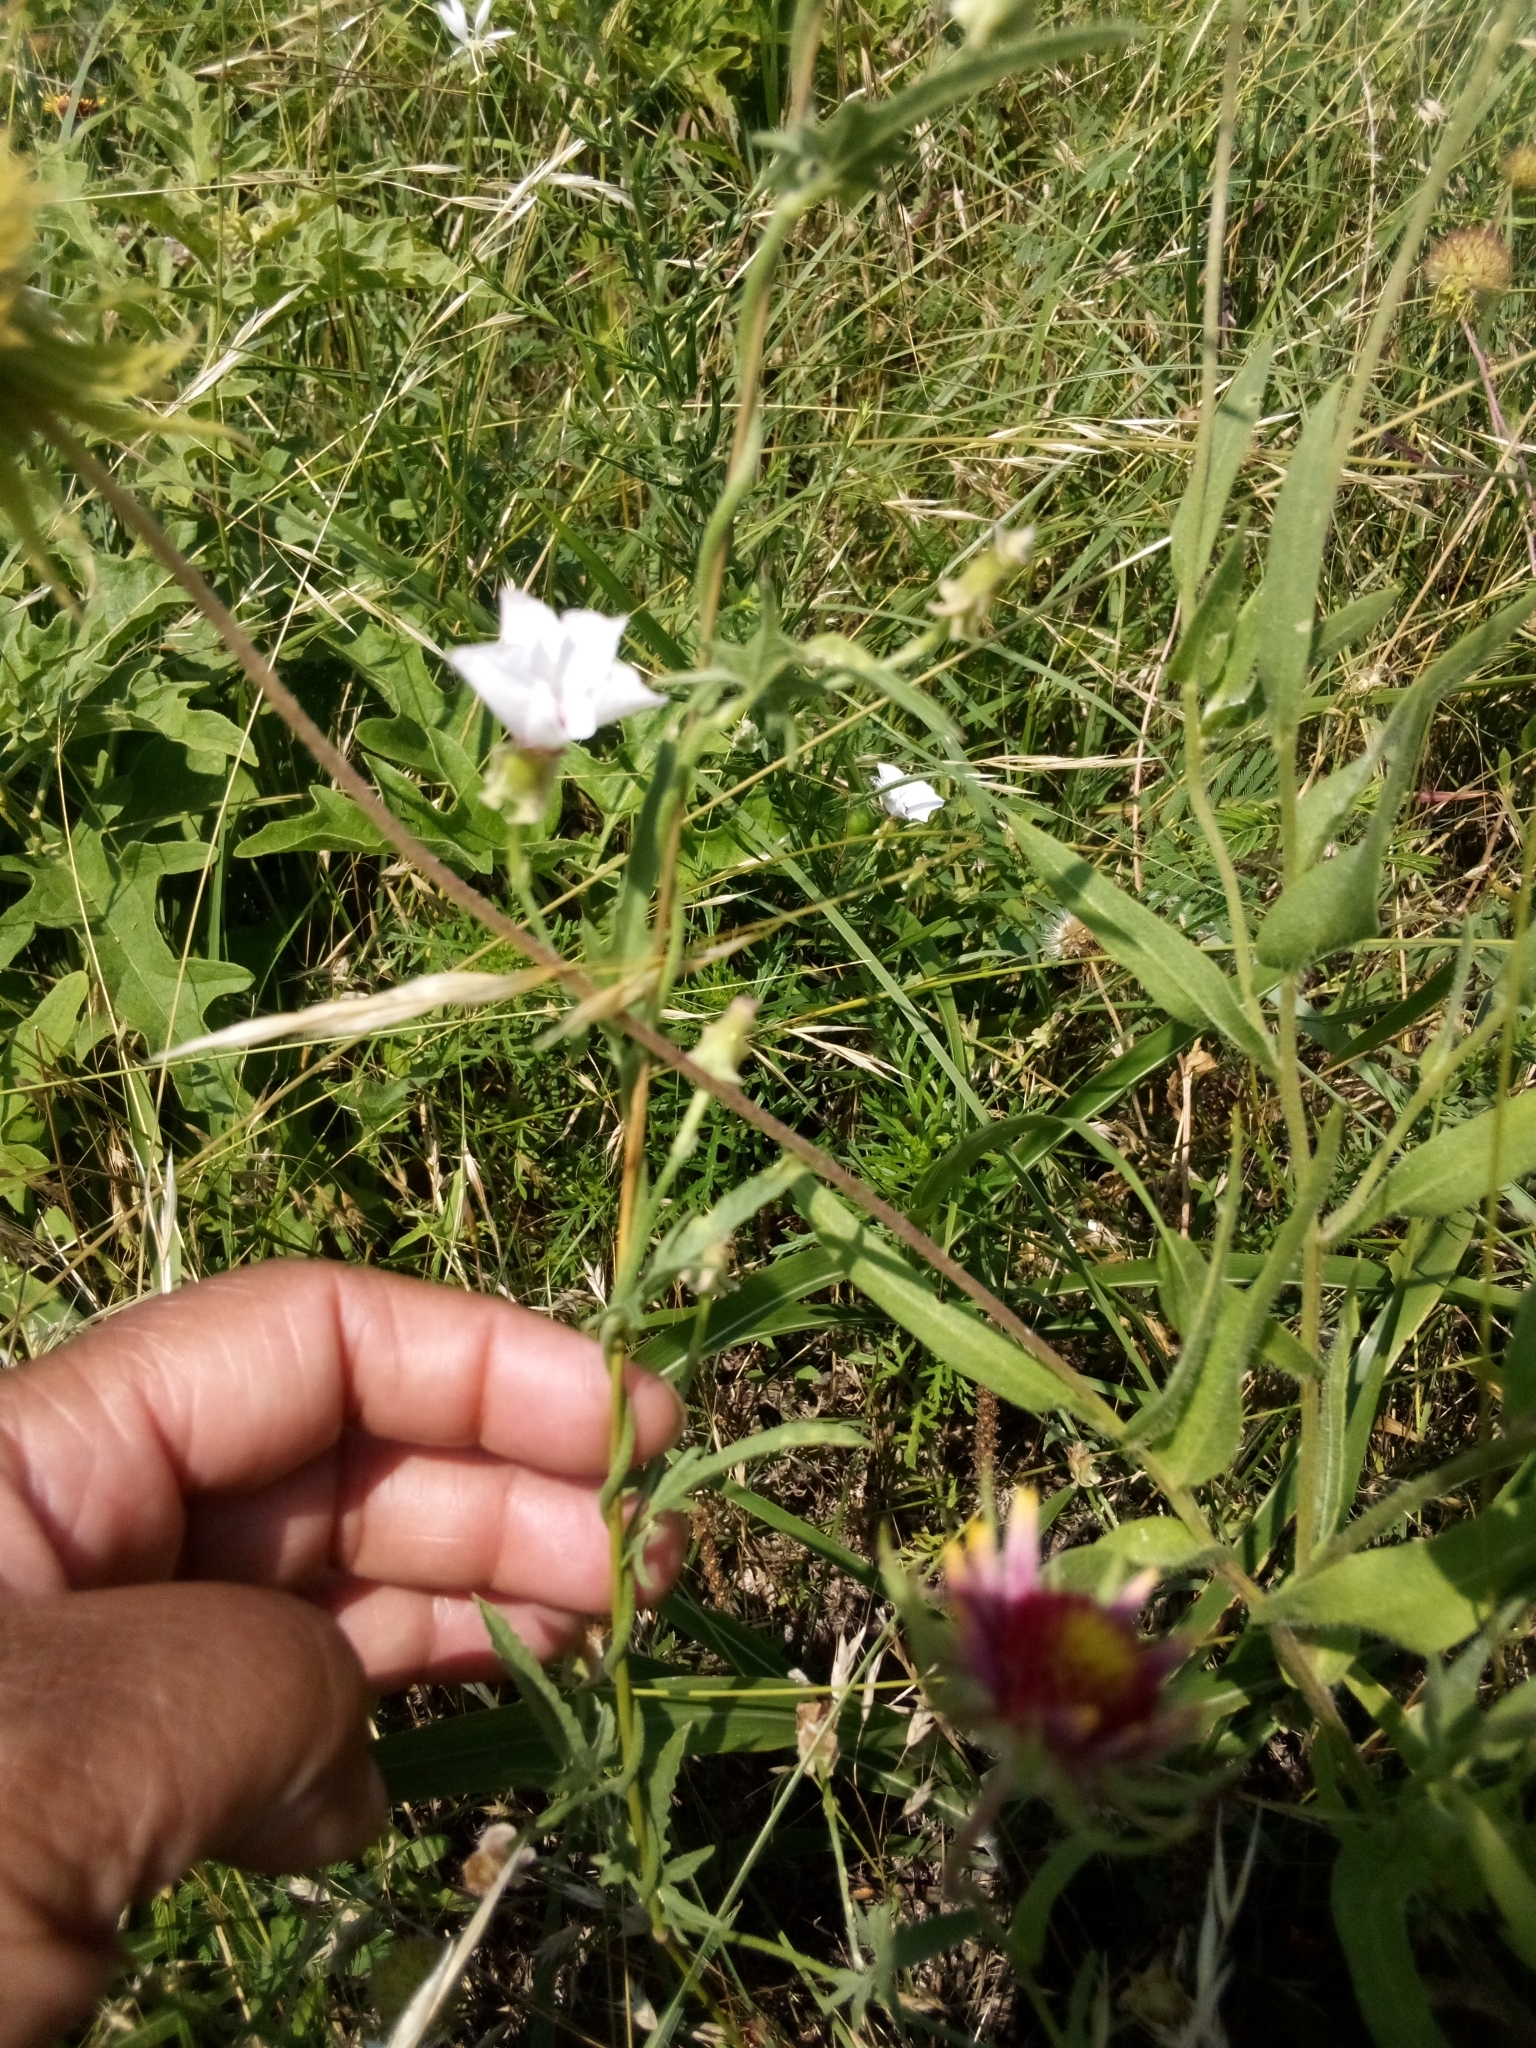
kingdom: Plantae
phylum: Tracheophyta
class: Magnoliopsida
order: Solanales
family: Convolvulaceae
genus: Convolvulus
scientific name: Convolvulus equitans
